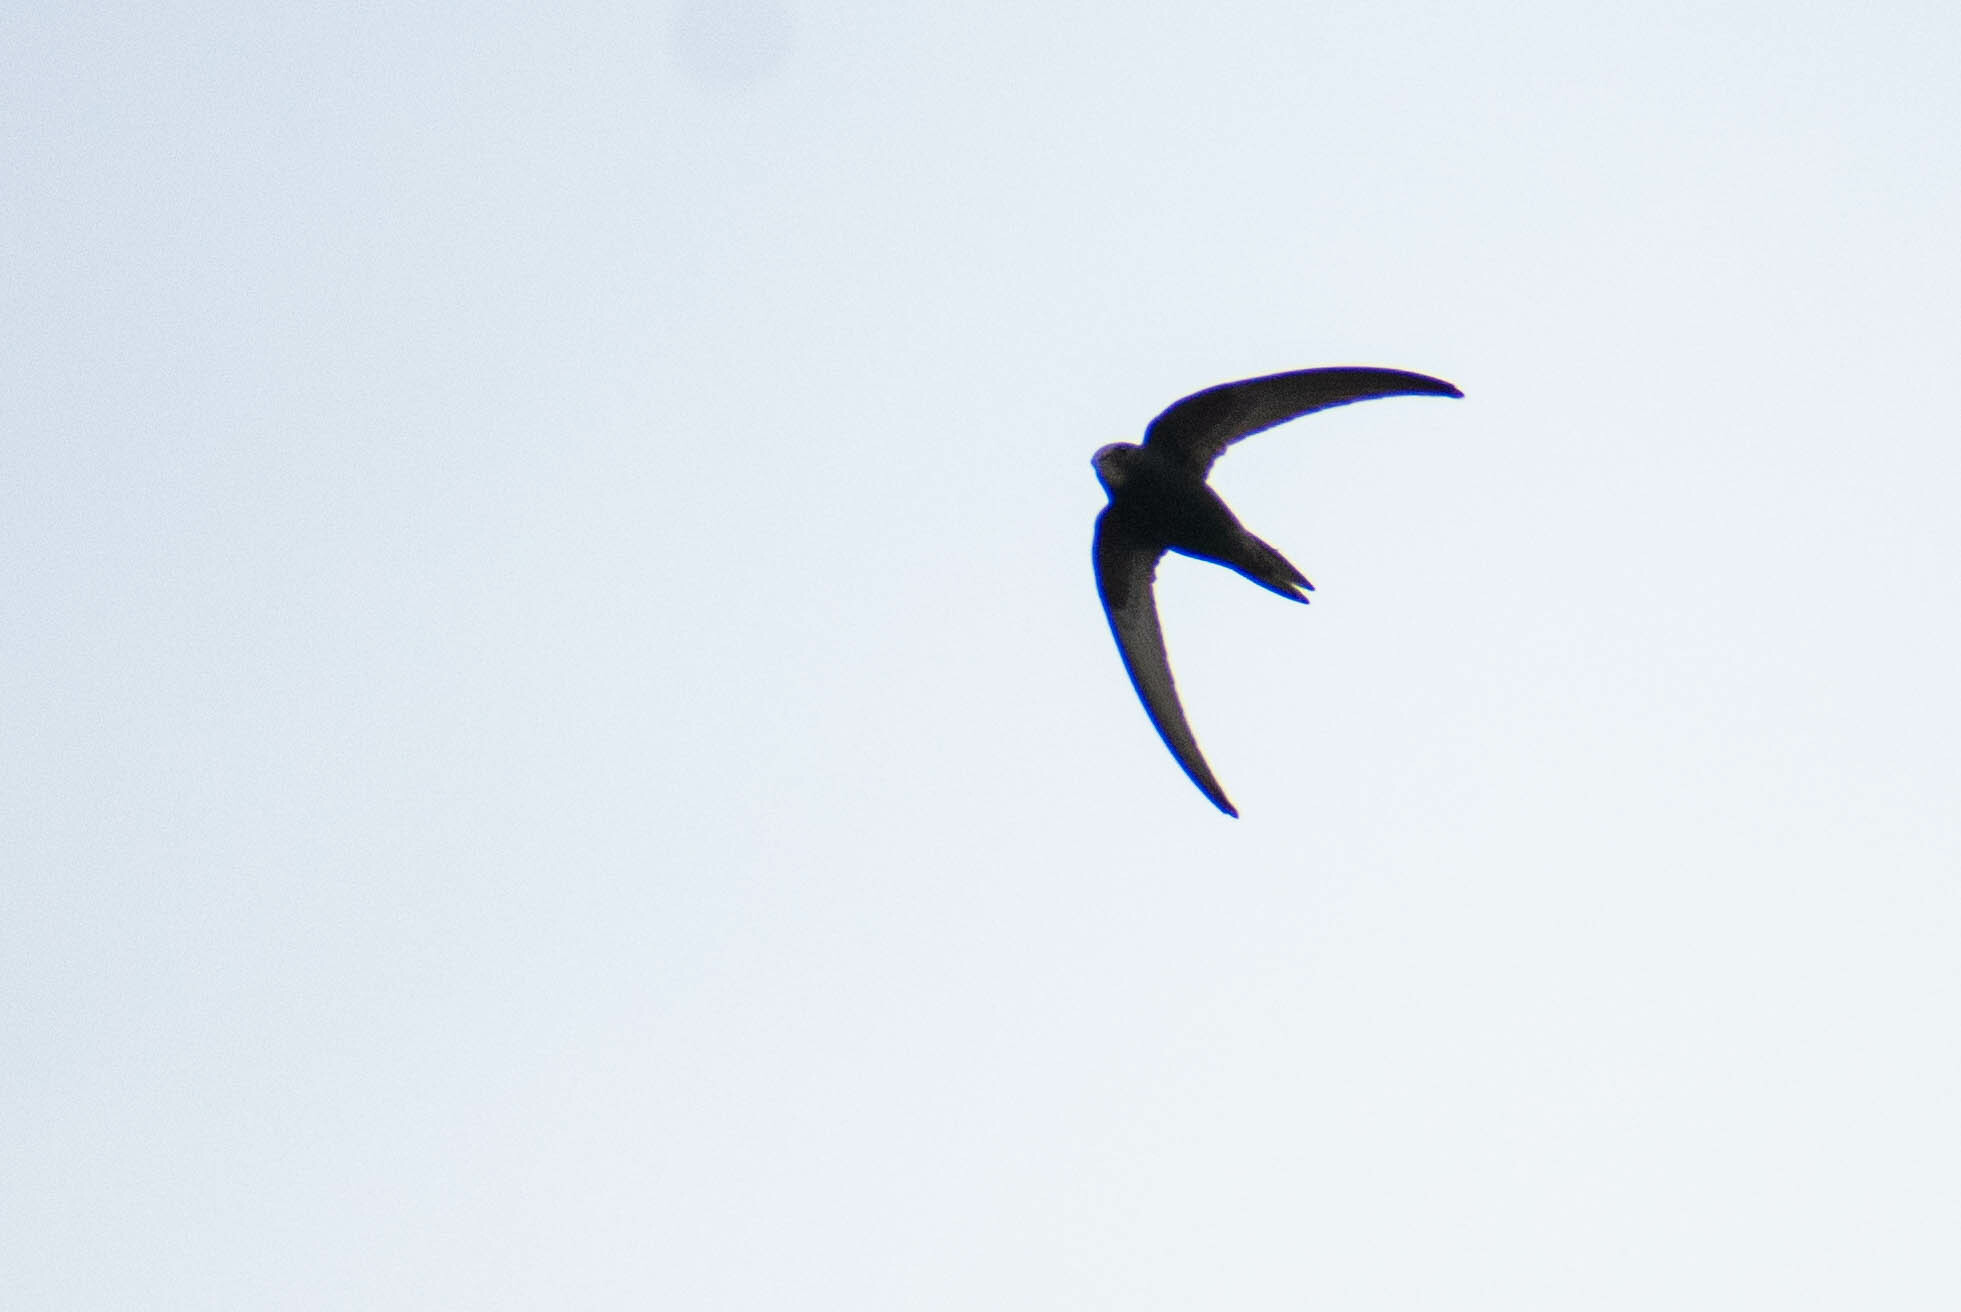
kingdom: Animalia
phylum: Chordata
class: Aves
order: Apodiformes
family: Apodidae
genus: Apus
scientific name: Apus apus
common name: Common swift
